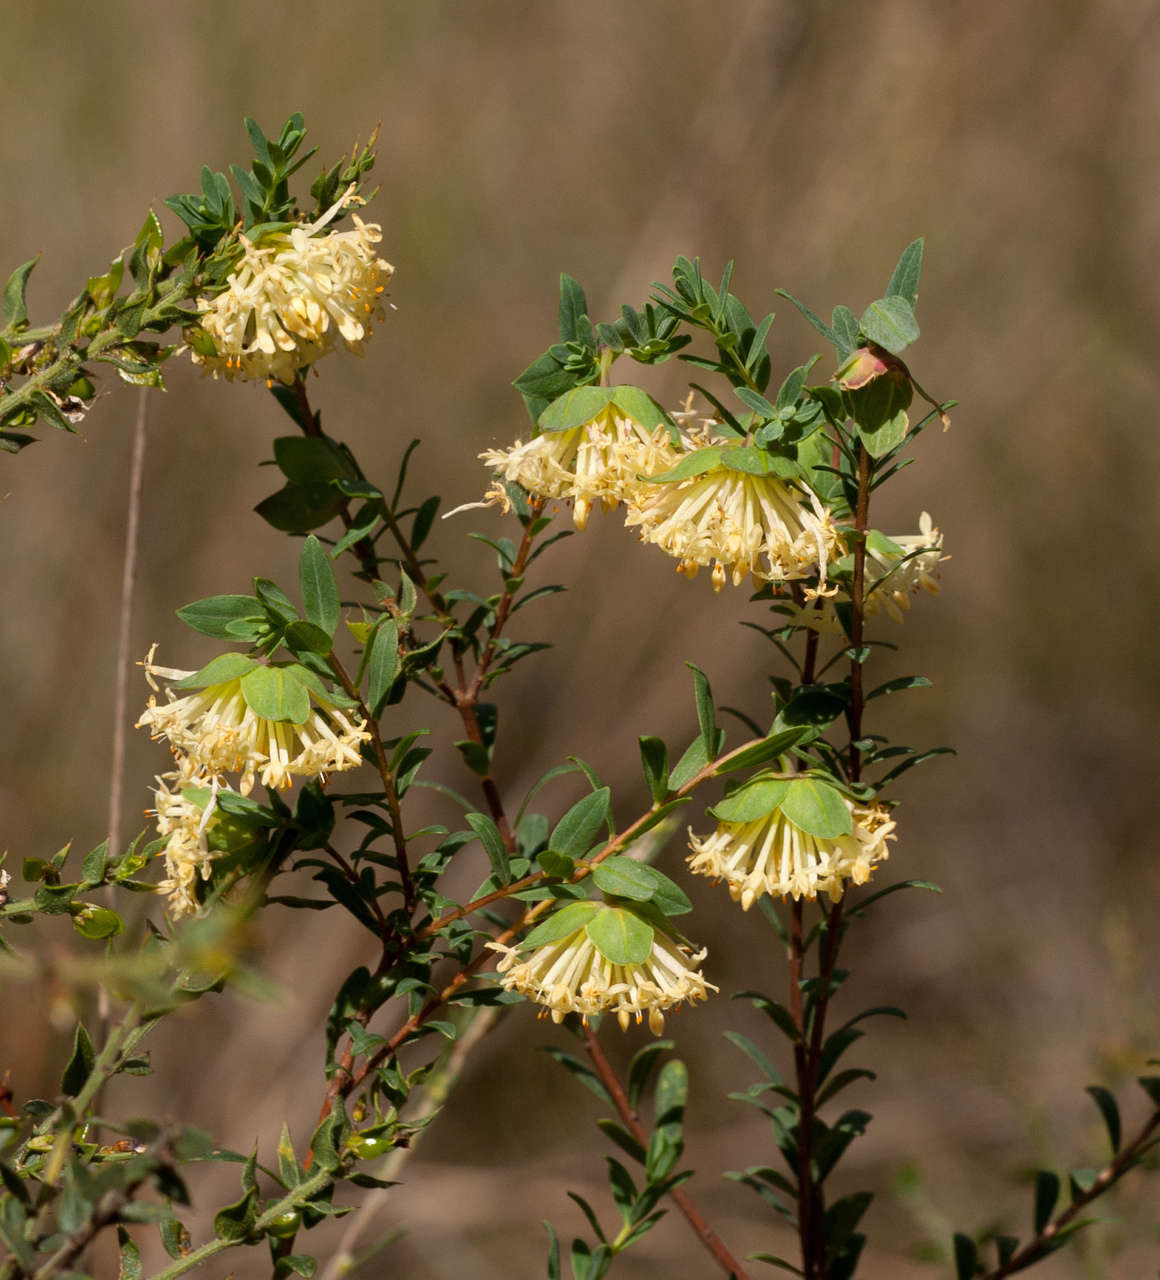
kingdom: Plantae
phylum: Tracheophyta
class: Magnoliopsida
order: Malvales
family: Thymelaeaceae
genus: Pimelea
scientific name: Pimelea linifolia
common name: Queen-of-the-bush
